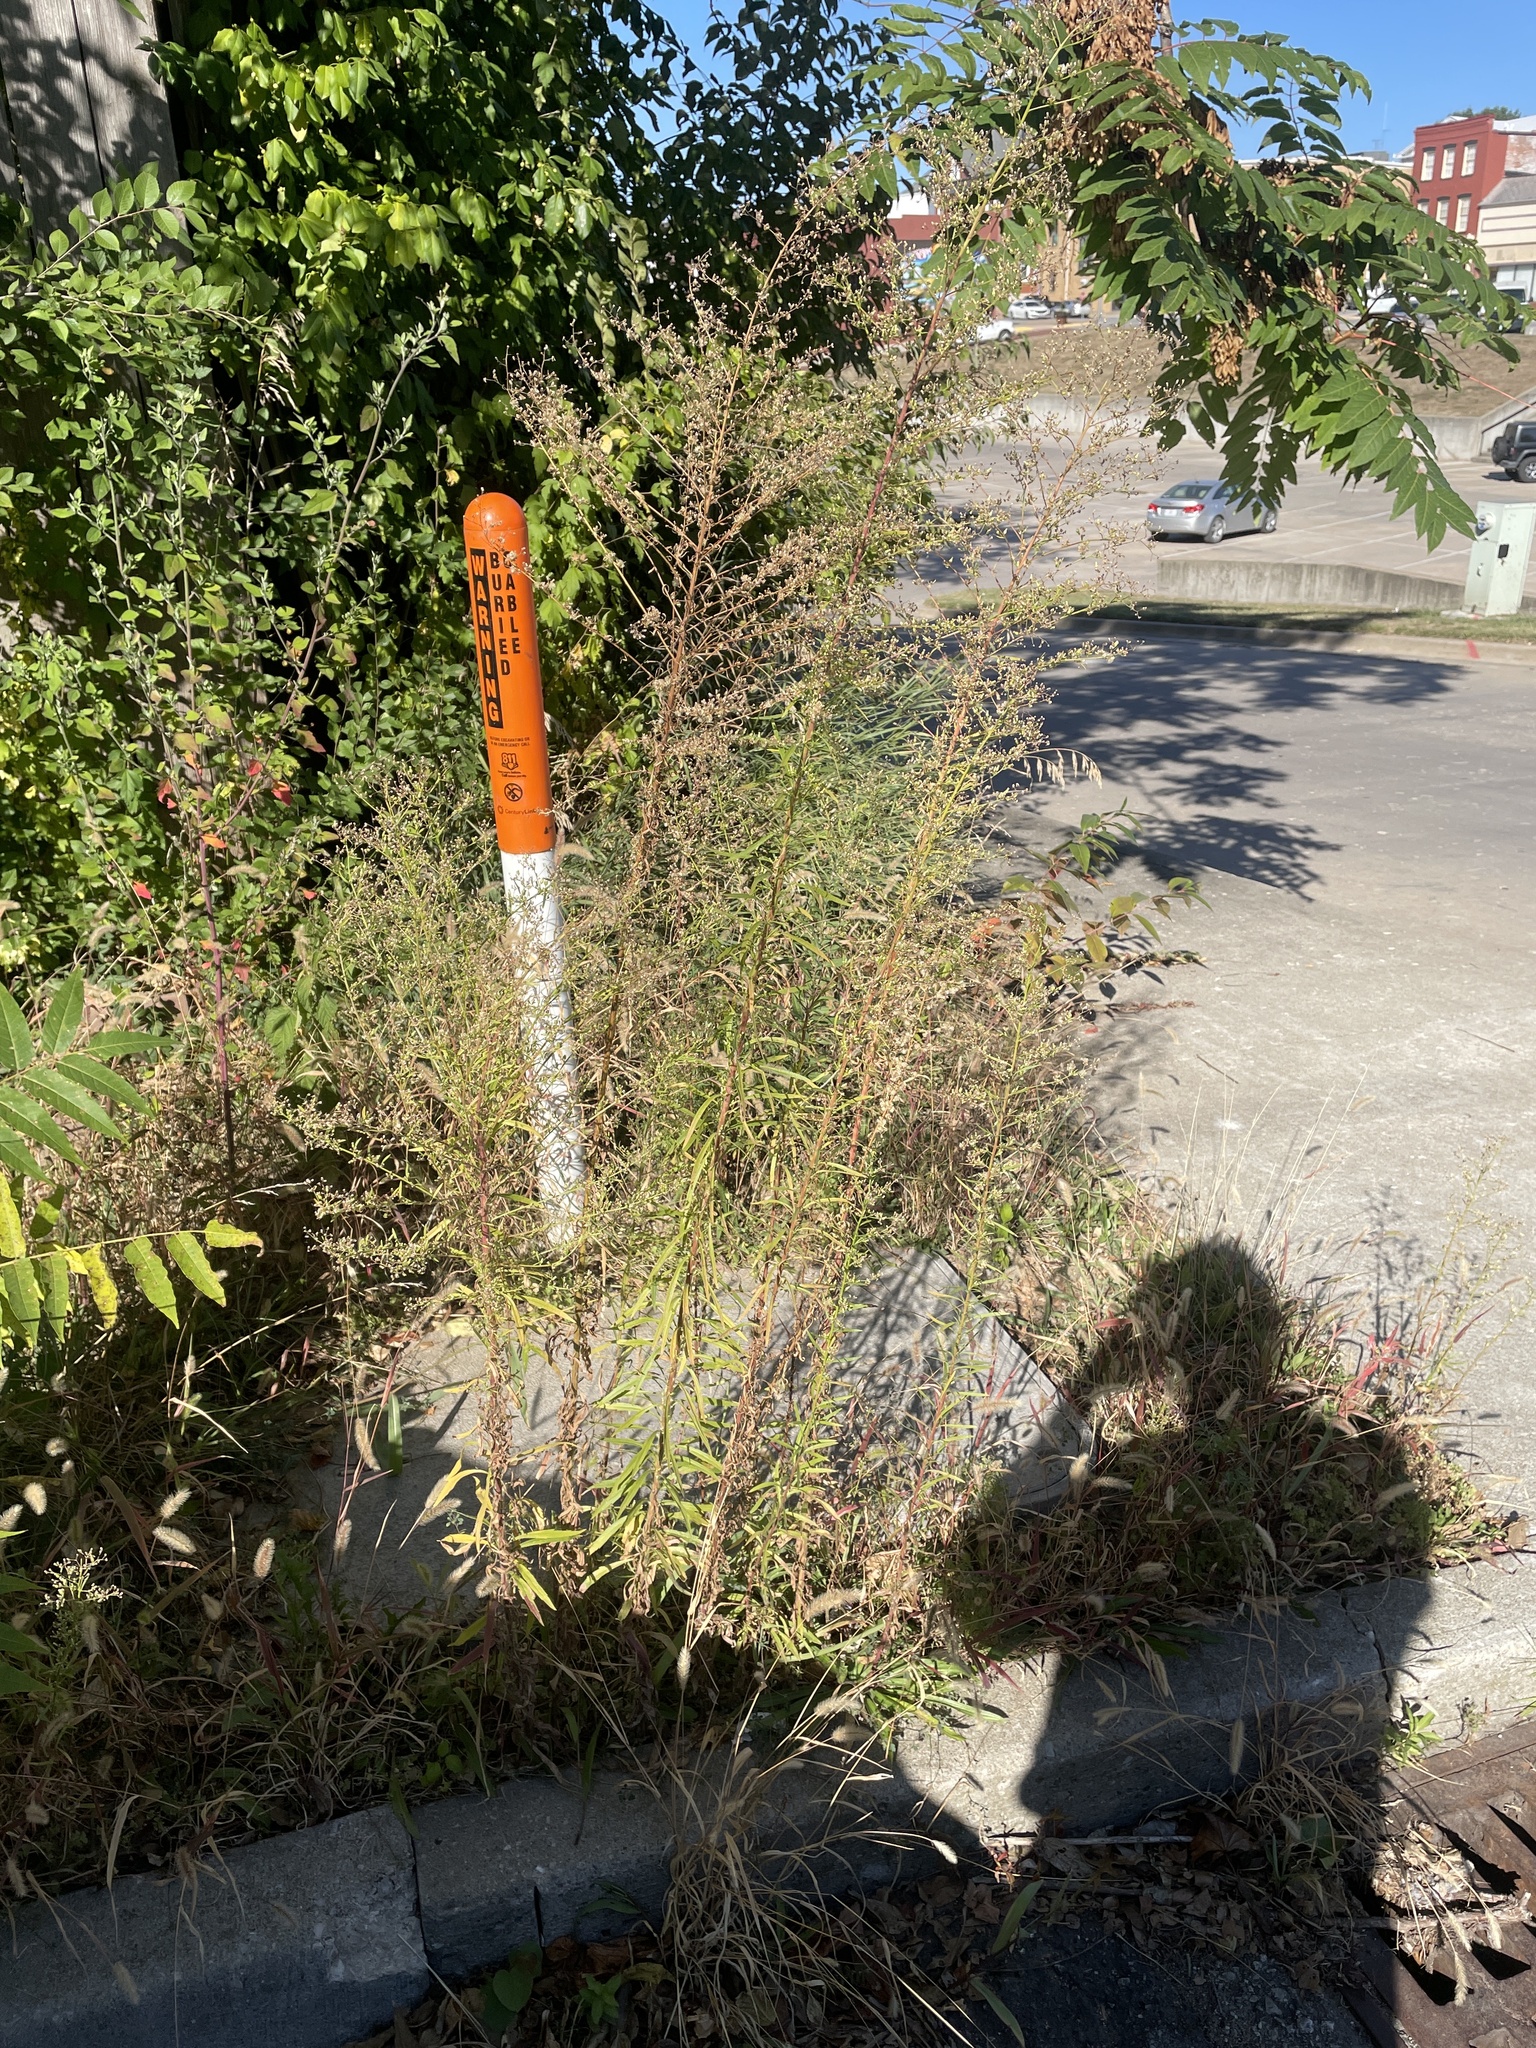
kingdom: Plantae
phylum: Tracheophyta
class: Magnoliopsida
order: Asterales
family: Asteraceae
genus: Erigeron
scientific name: Erigeron canadensis
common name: Canadian fleabane
